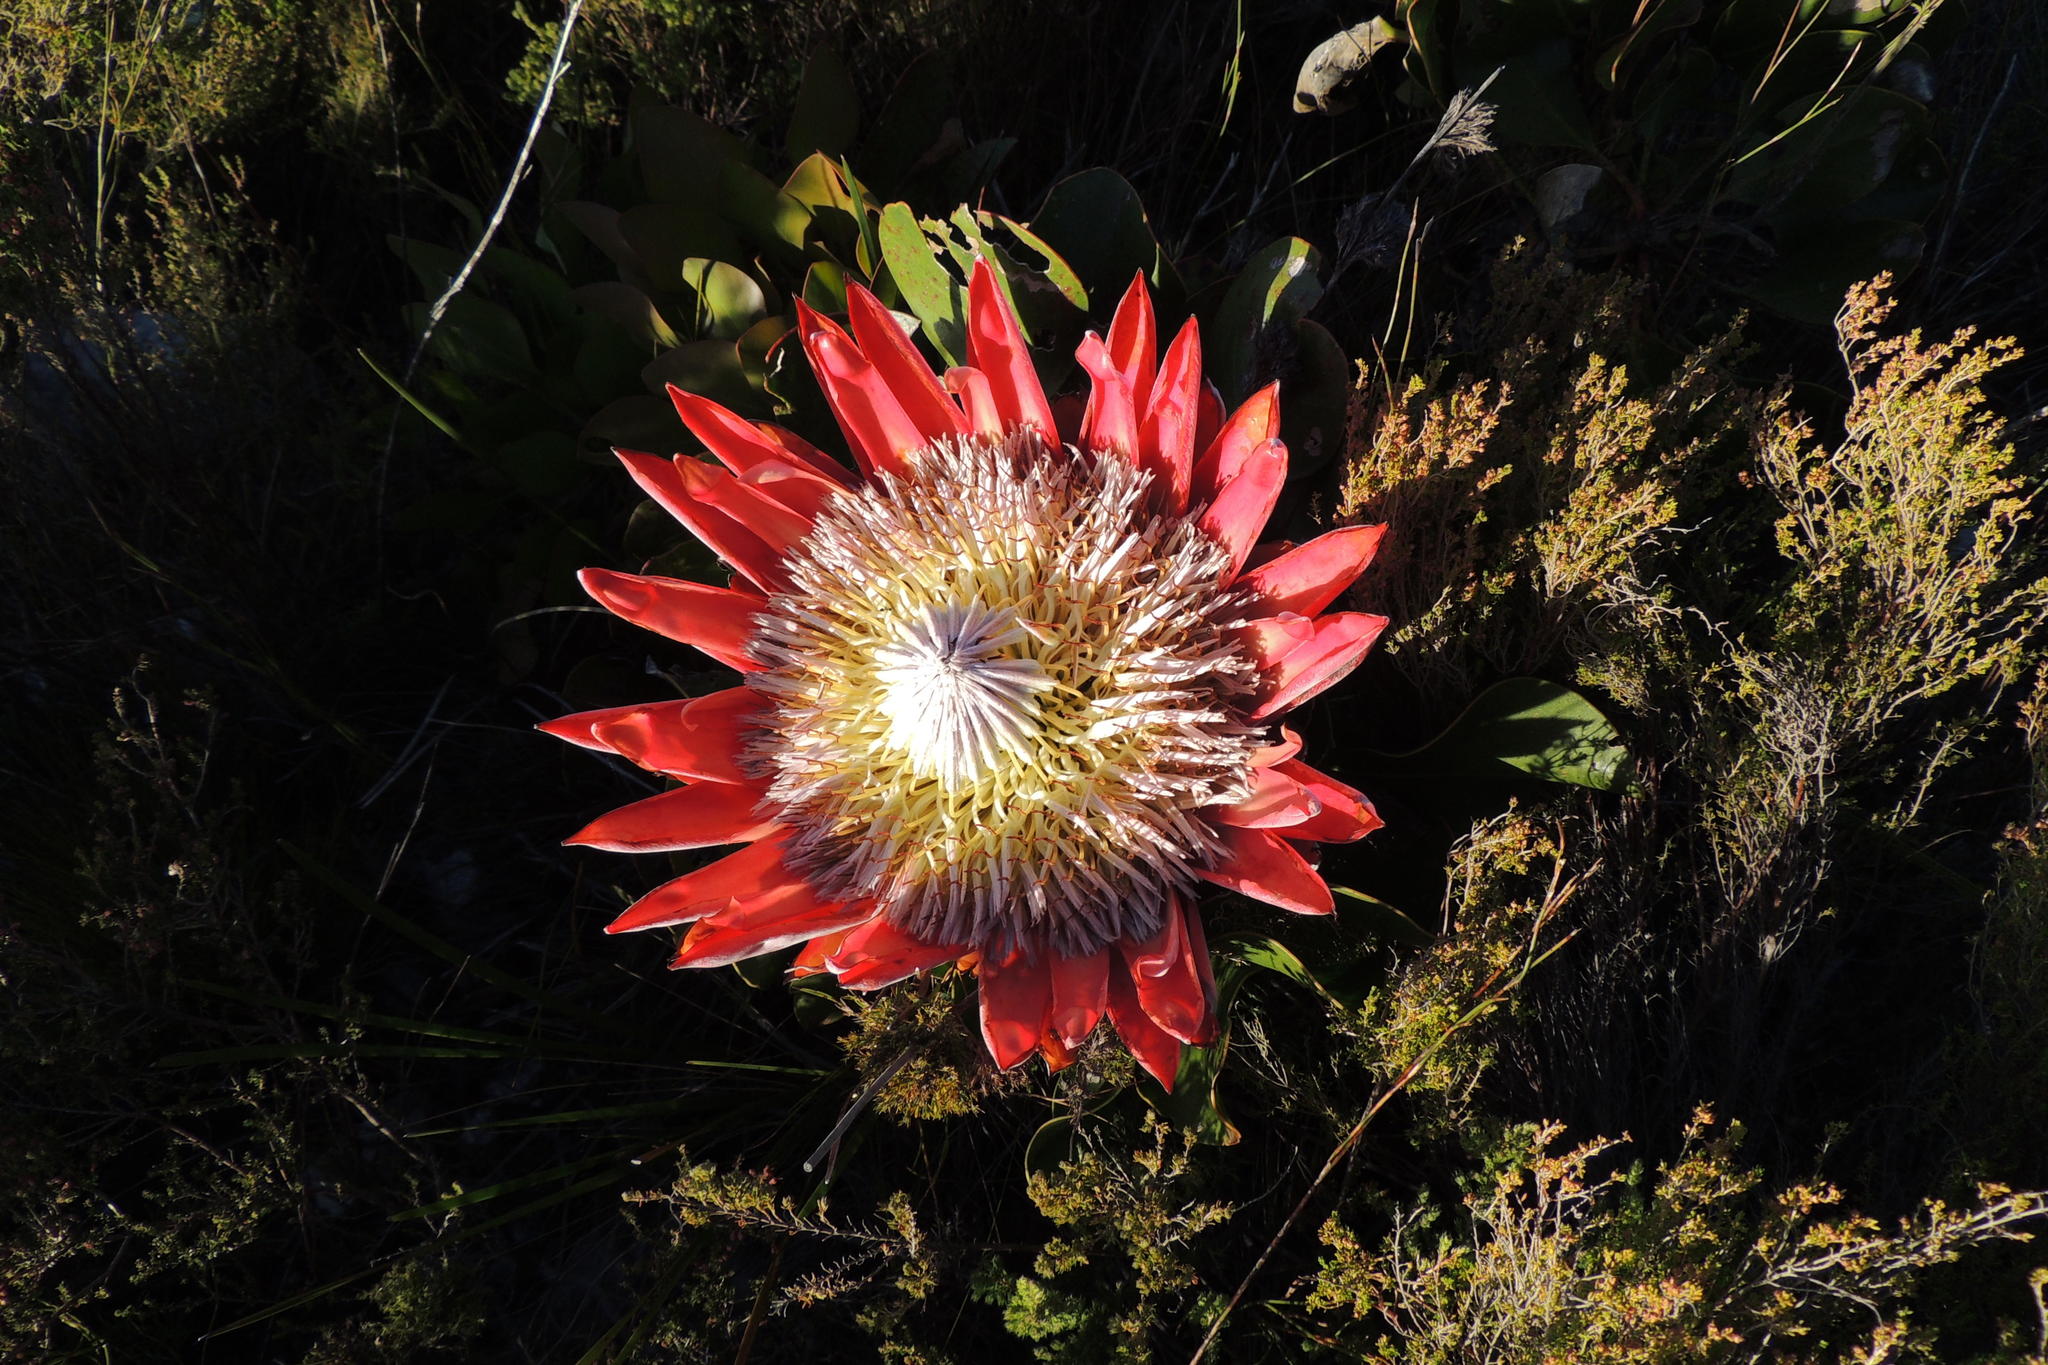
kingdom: Plantae
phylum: Tracheophyta
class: Magnoliopsida
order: Proteales
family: Proteaceae
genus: Protea
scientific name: Protea cynaroides
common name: King protea
